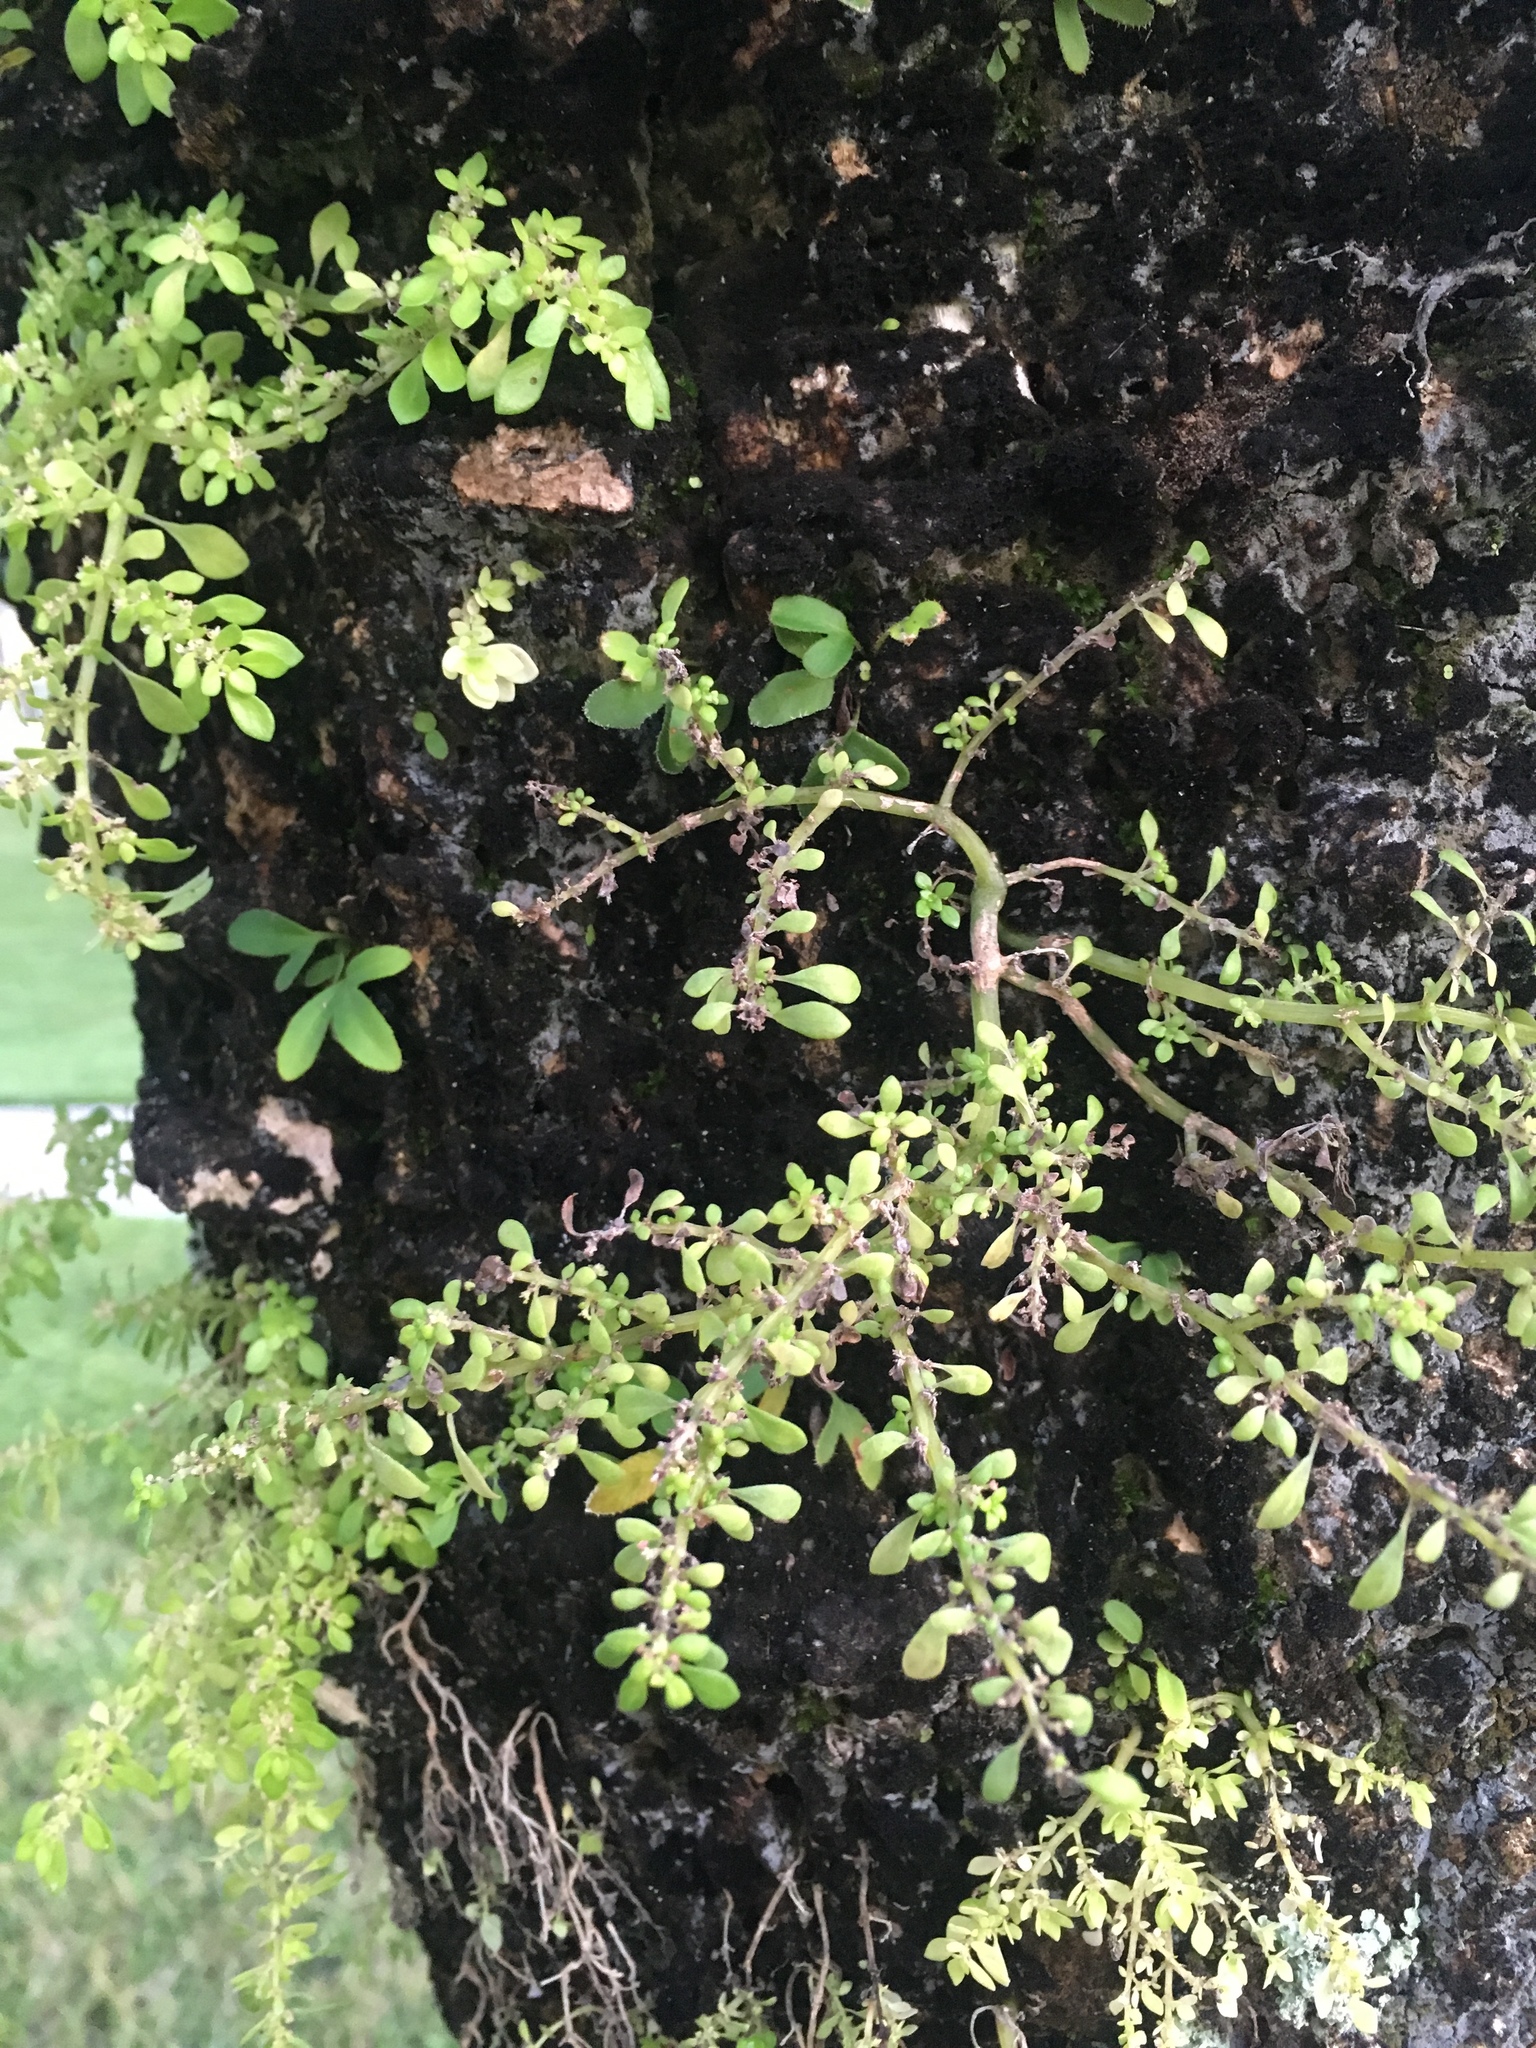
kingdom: Plantae
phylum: Tracheophyta
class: Magnoliopsida
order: Rosales
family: Urticaceae
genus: Pilea
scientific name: Pilea microphylla
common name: Artillery-plant
